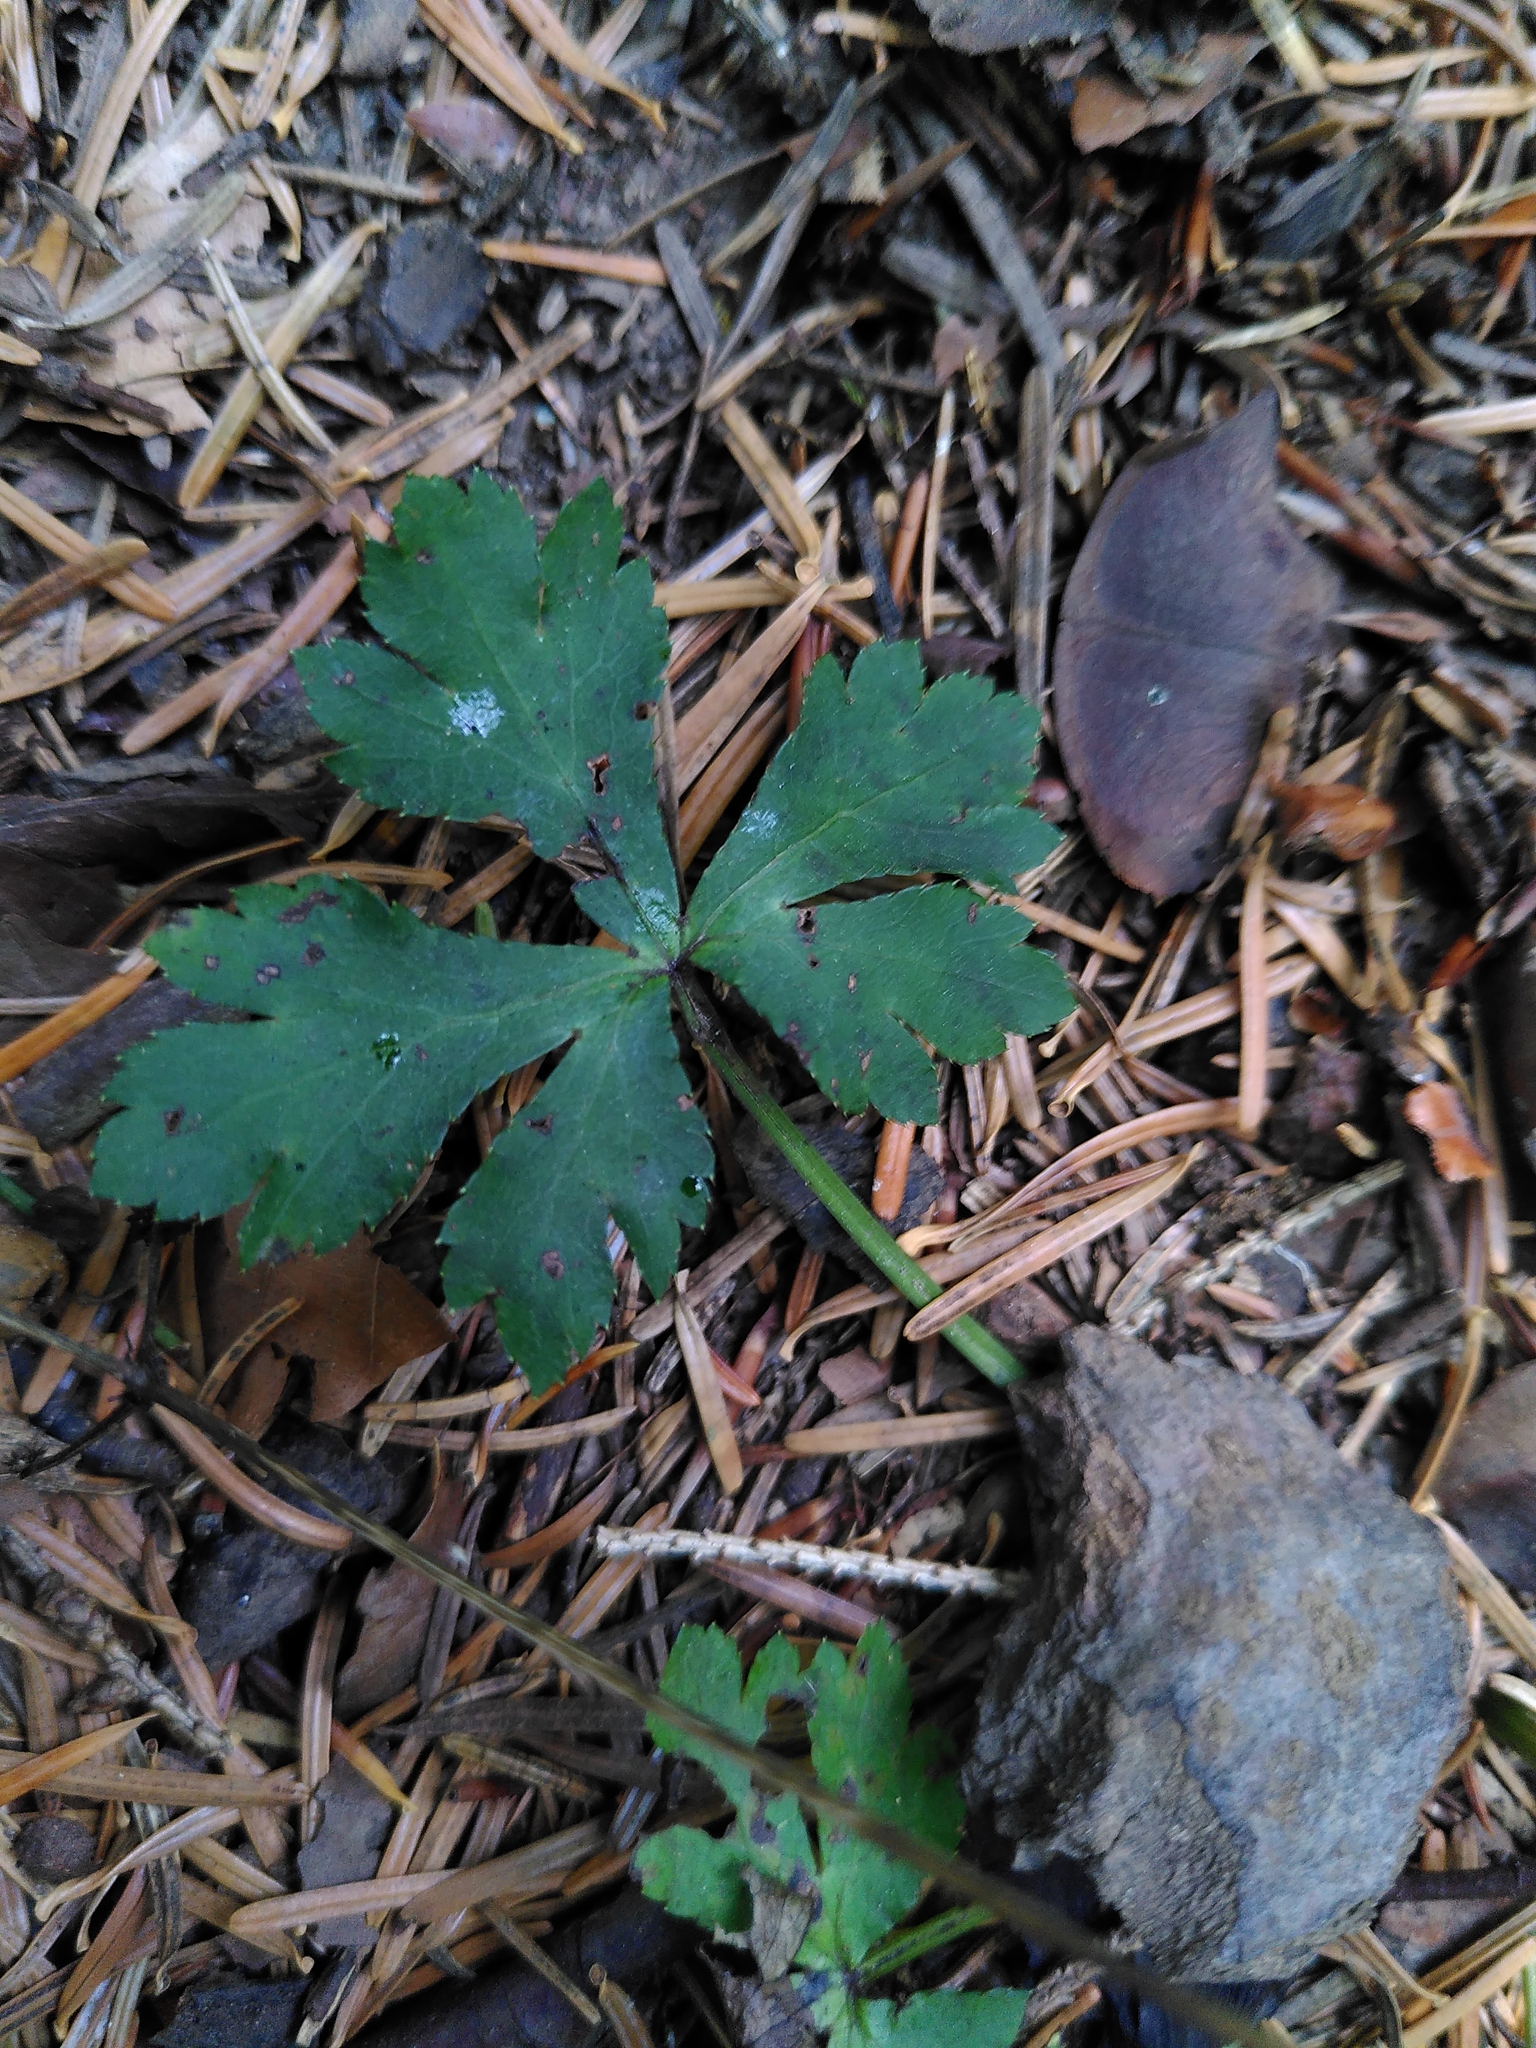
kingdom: Plantae
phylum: Tracheophyta
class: Magnoliopsida
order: Apiales
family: Apiaceae
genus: Sanicula
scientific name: Sanicula europaea
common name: Sanicle
